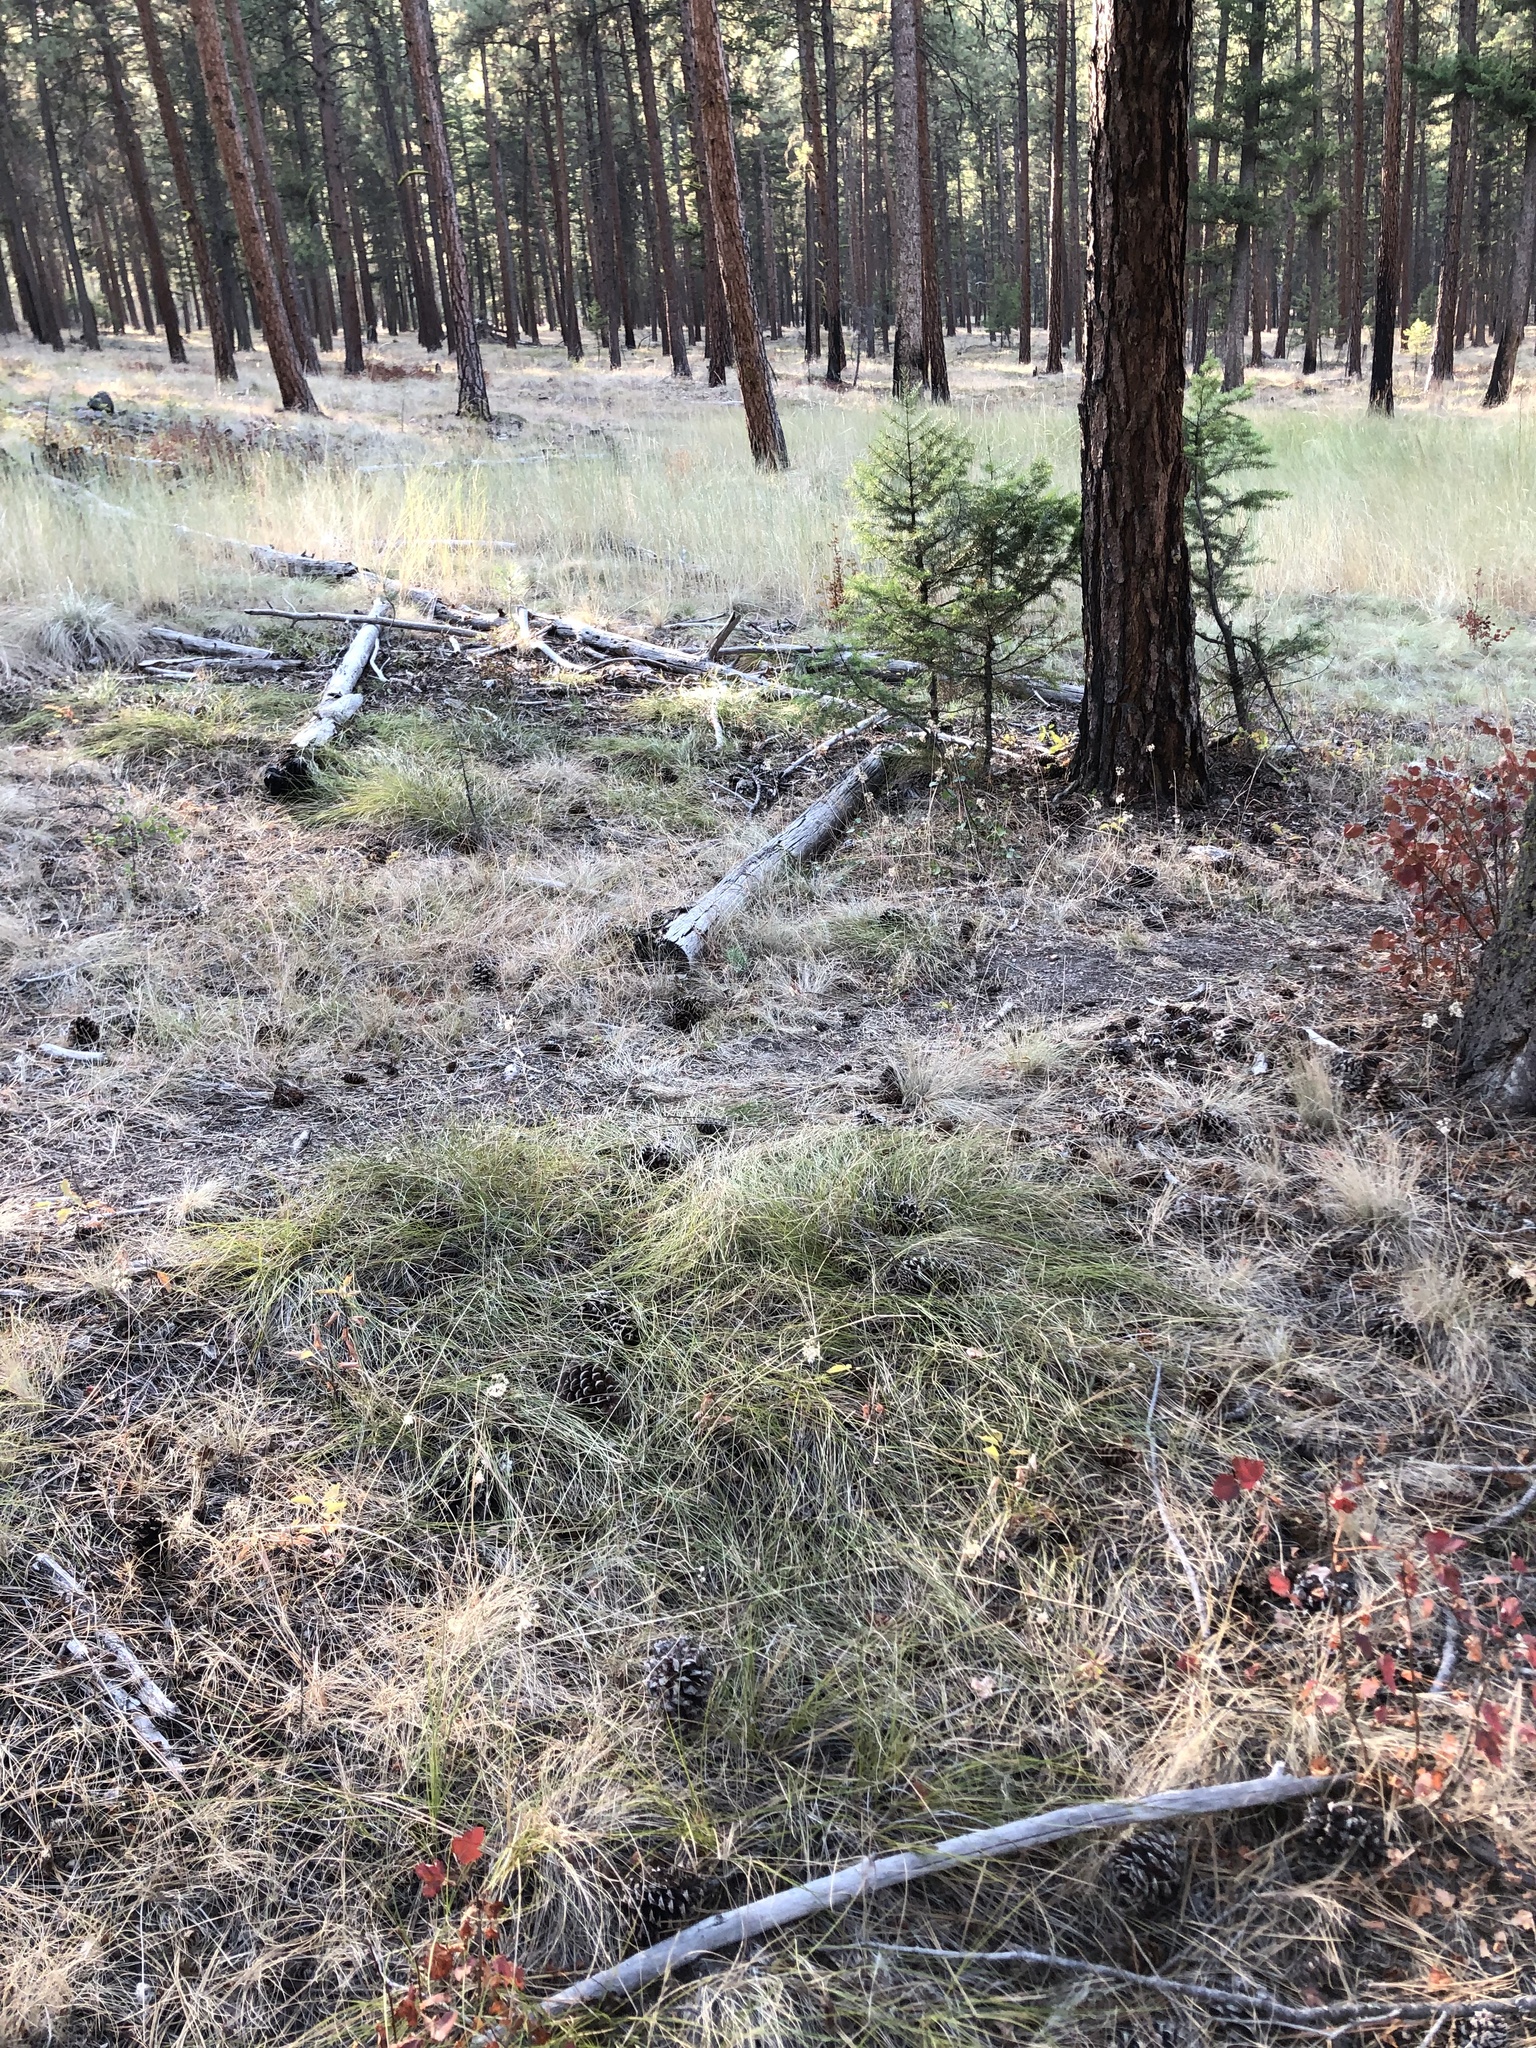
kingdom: Plantae
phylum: Tracheophyta
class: Liliopsida
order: Poales
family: Poaceae
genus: Elymus
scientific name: Elymus violaceus
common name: Arctic wheatgrass
